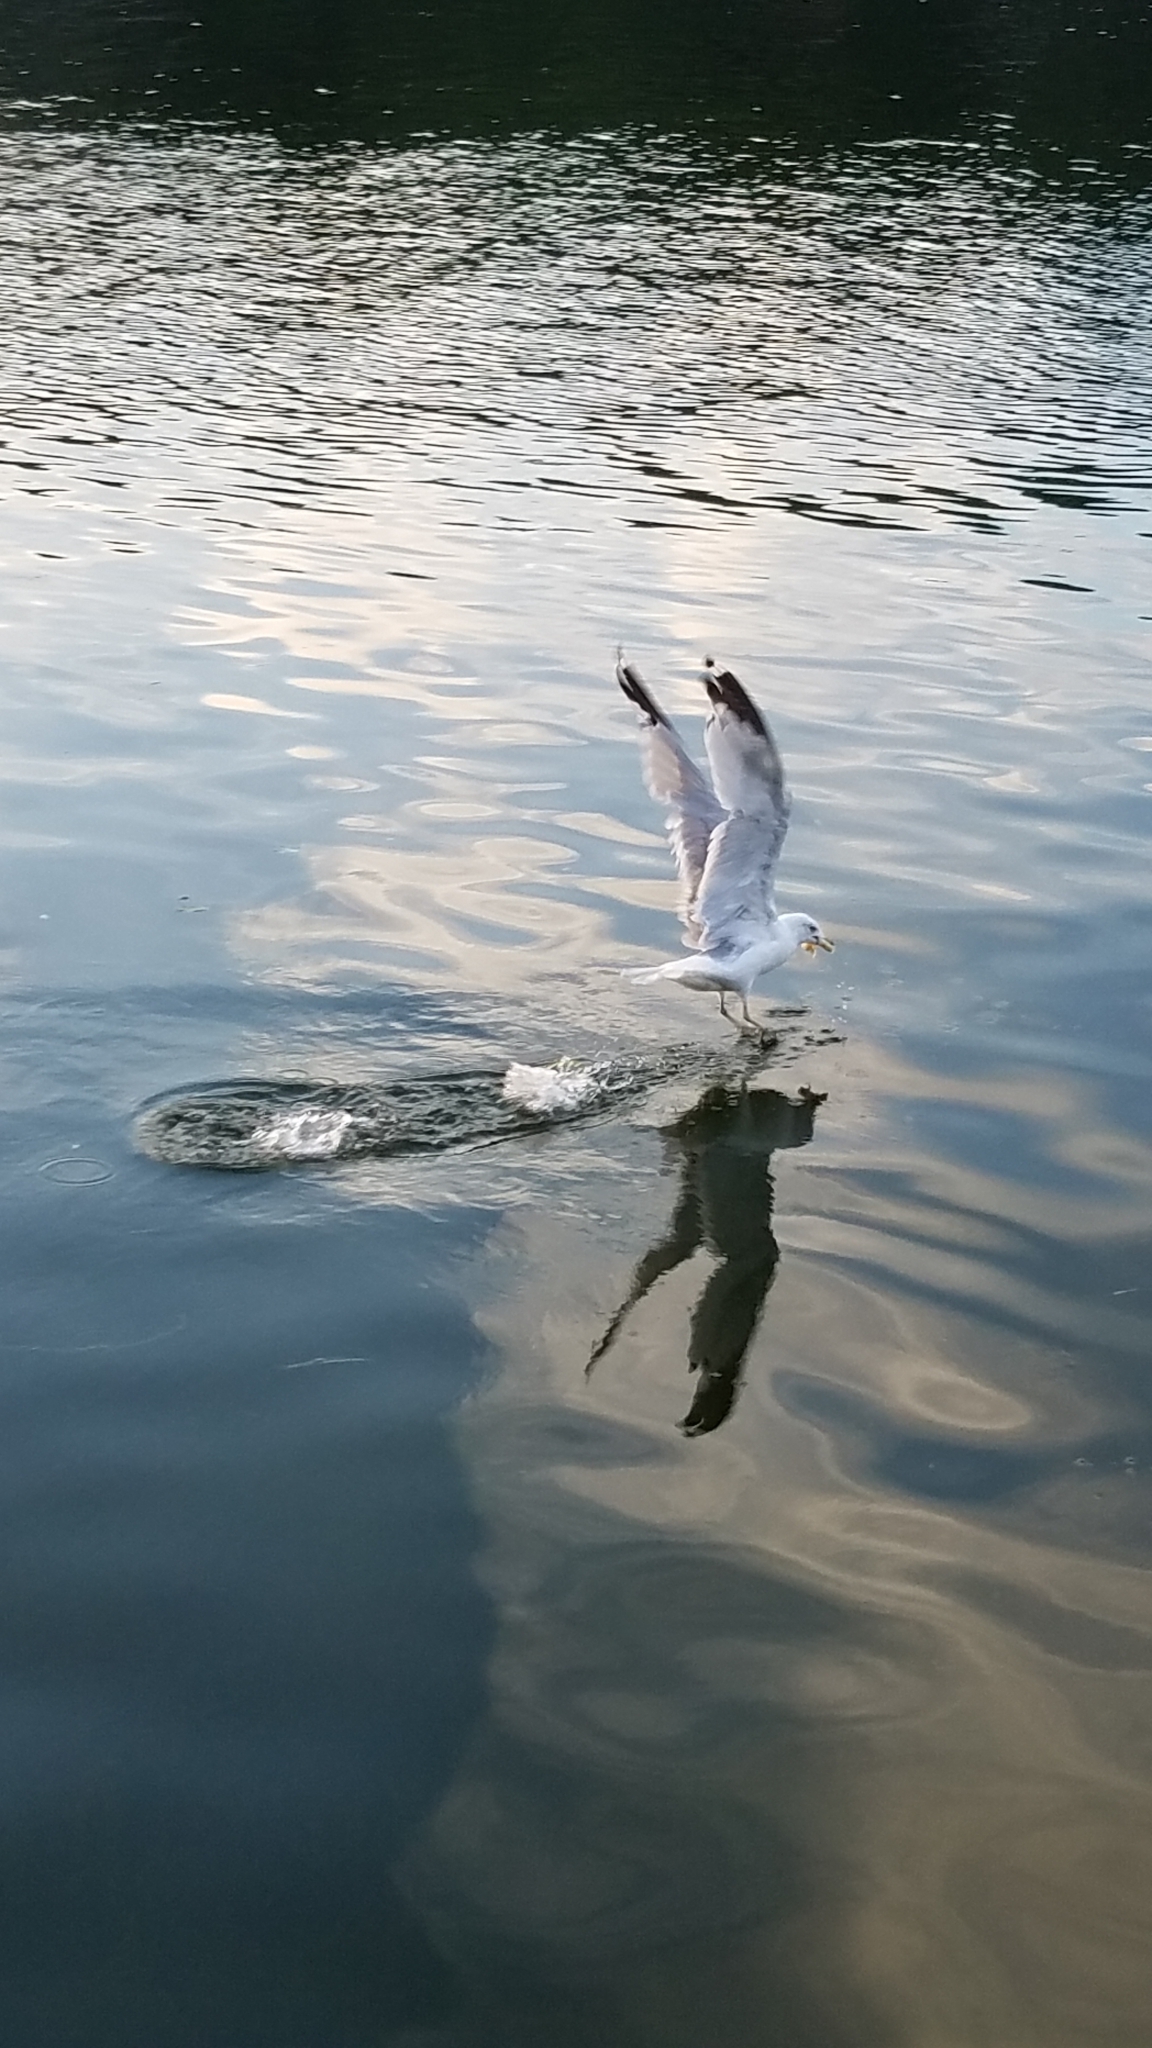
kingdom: Animalia
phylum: Chordata
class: Aves
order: Charadriiformes
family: Laridae
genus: Larus
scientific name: Larus delawarensis
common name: Ring-billed gull
